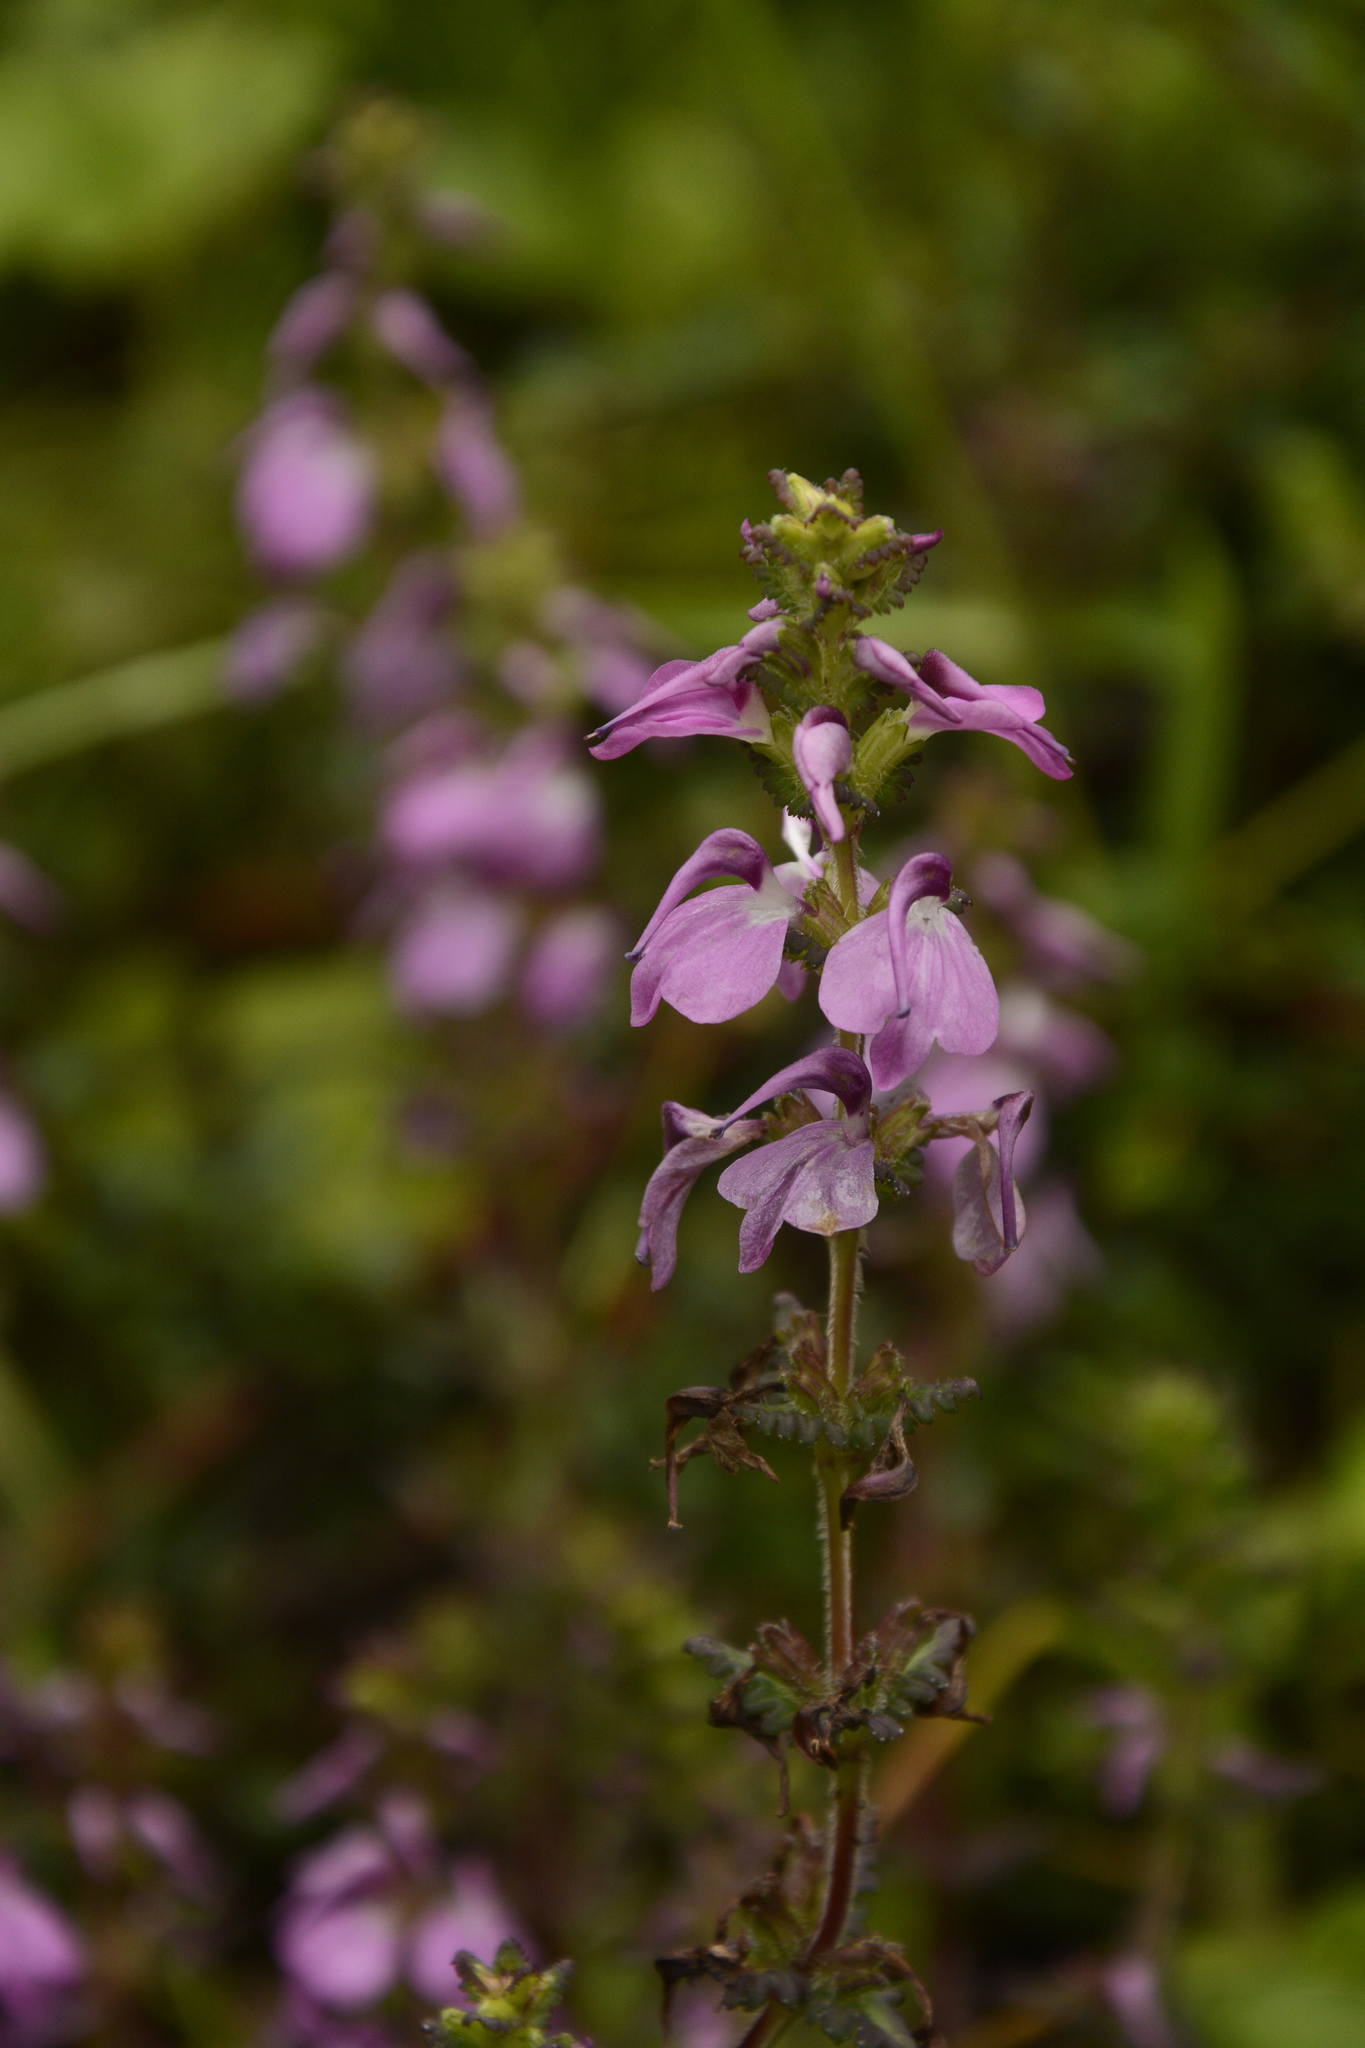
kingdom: Plantae
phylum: Tracheophyta
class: Magnoliopsida
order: Lamiales
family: Orobanchaceae
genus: Pedicularis
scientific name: Pedicularis gracilis
